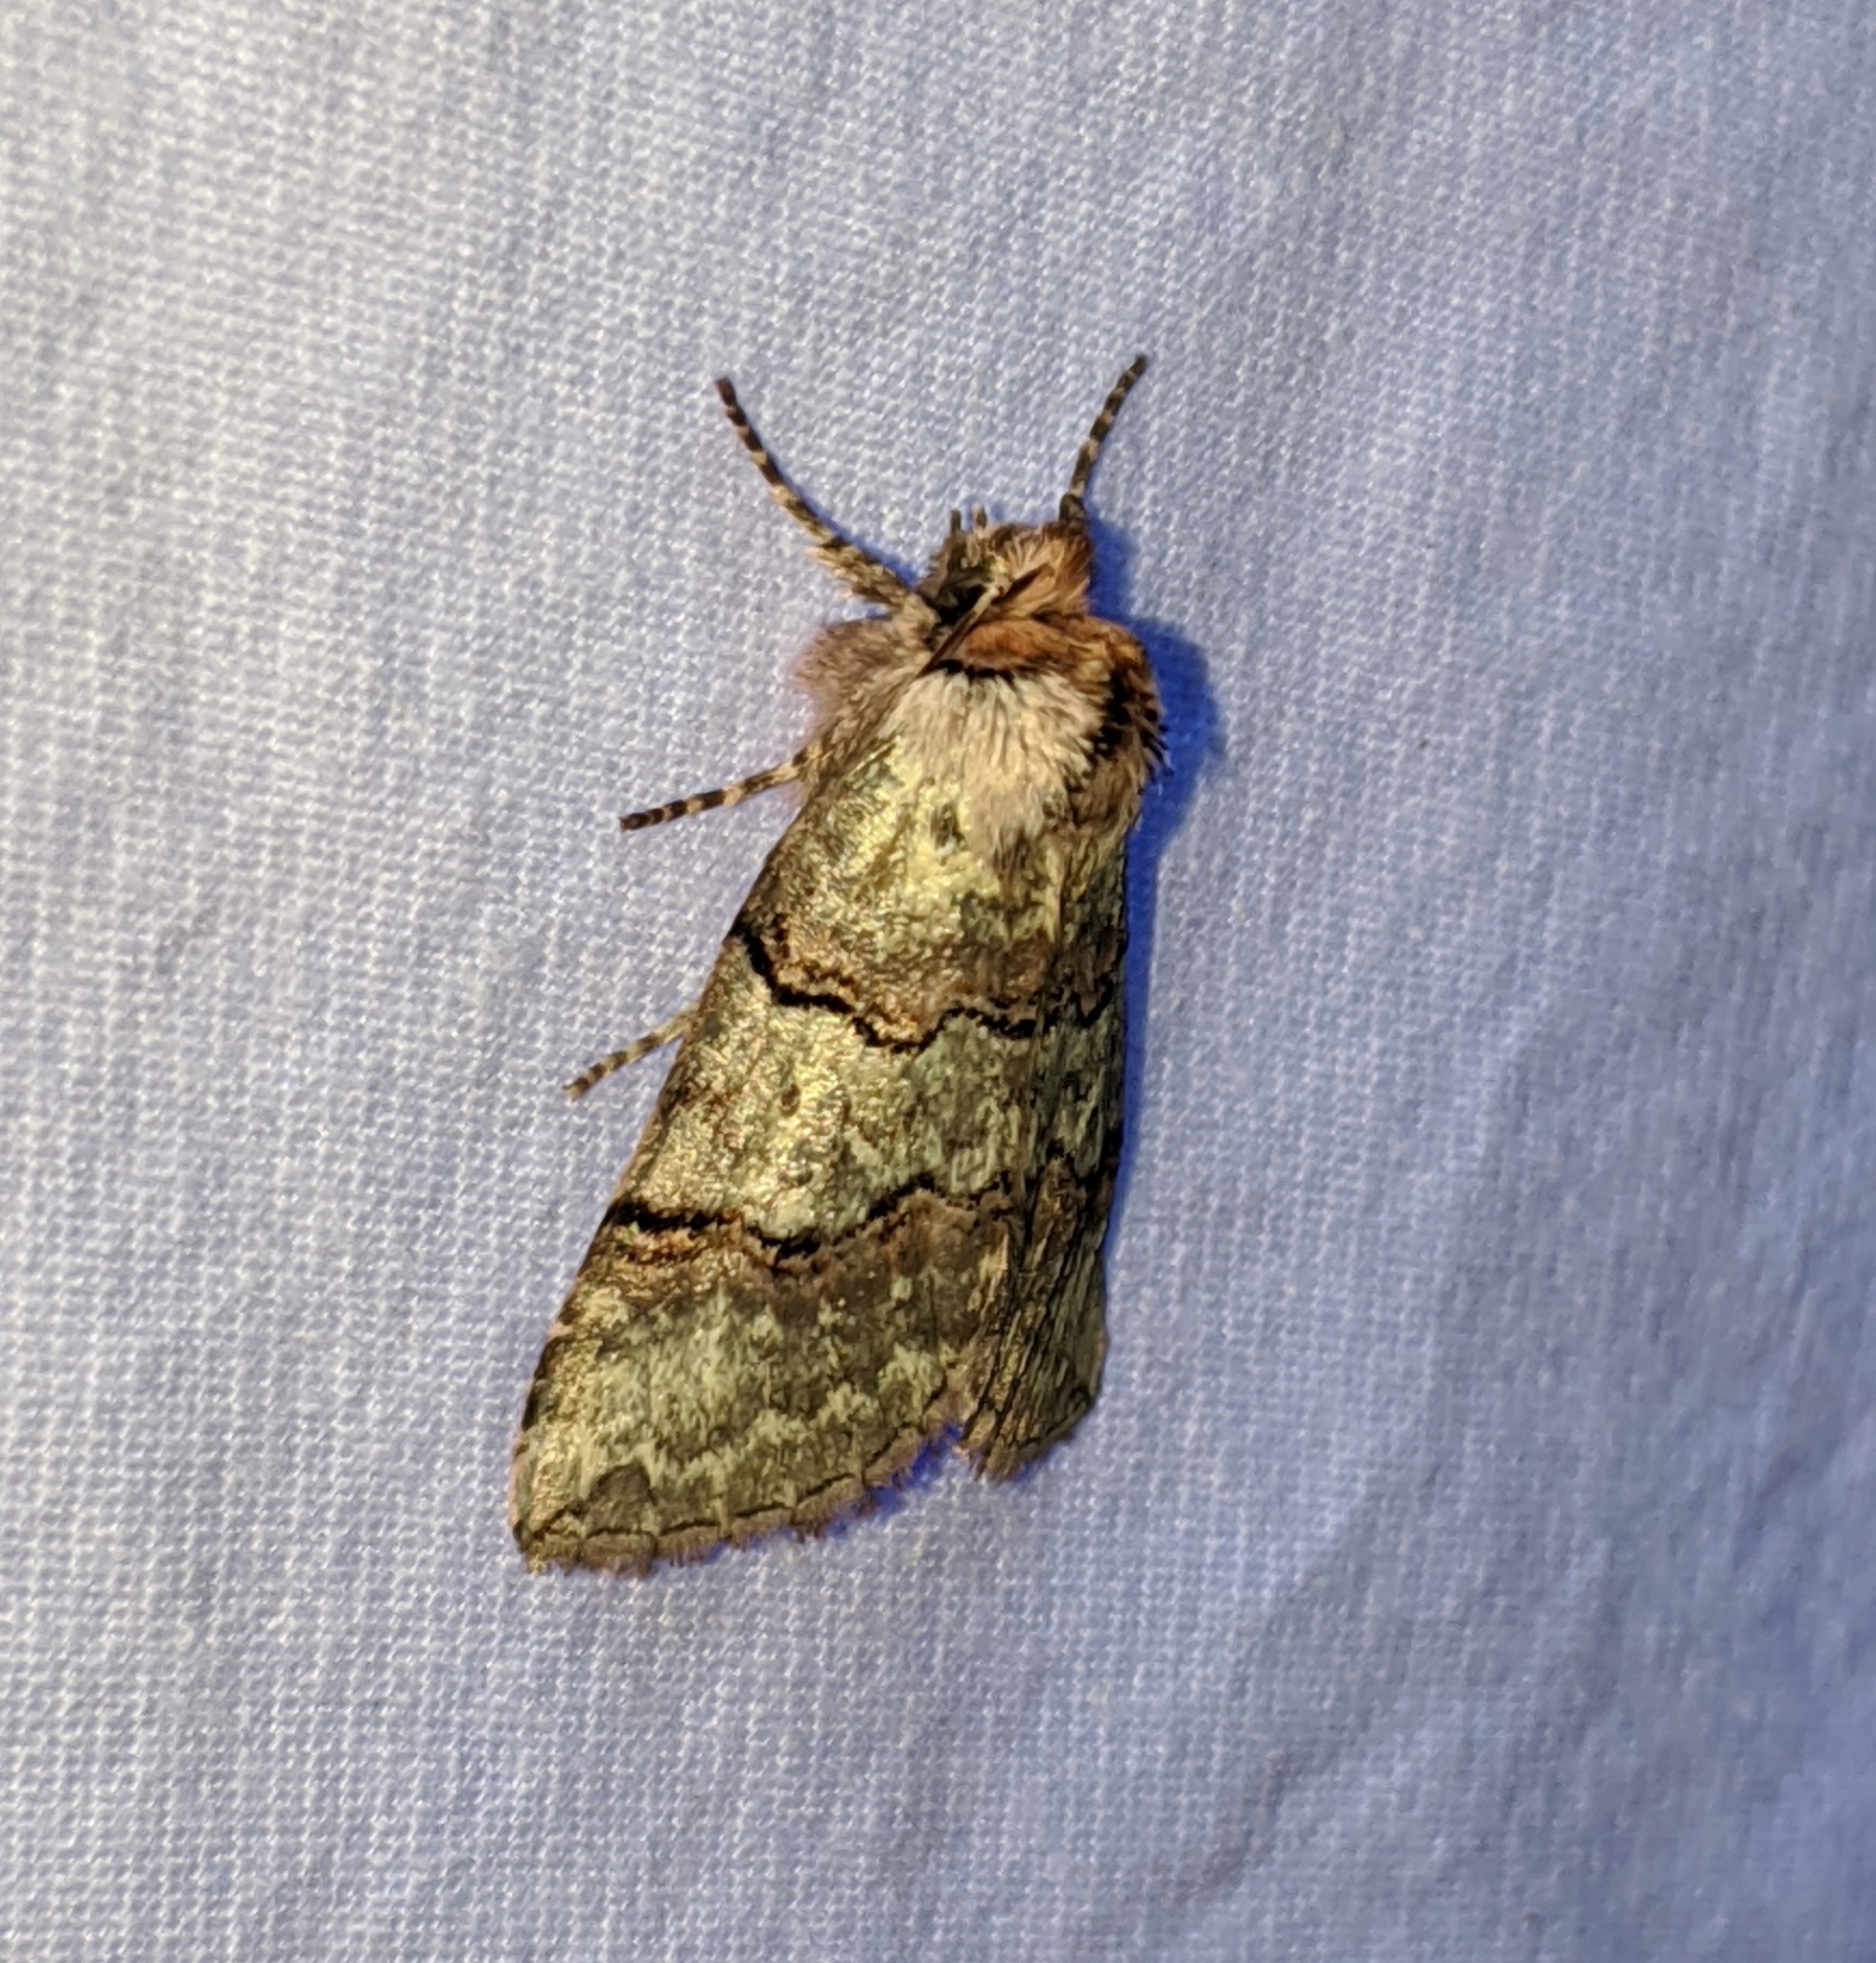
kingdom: Animalia
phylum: Arthropoda
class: Insecta
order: Lepidoptera
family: Drepanidae
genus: Ceranemota
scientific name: Ceranemota fasciata
